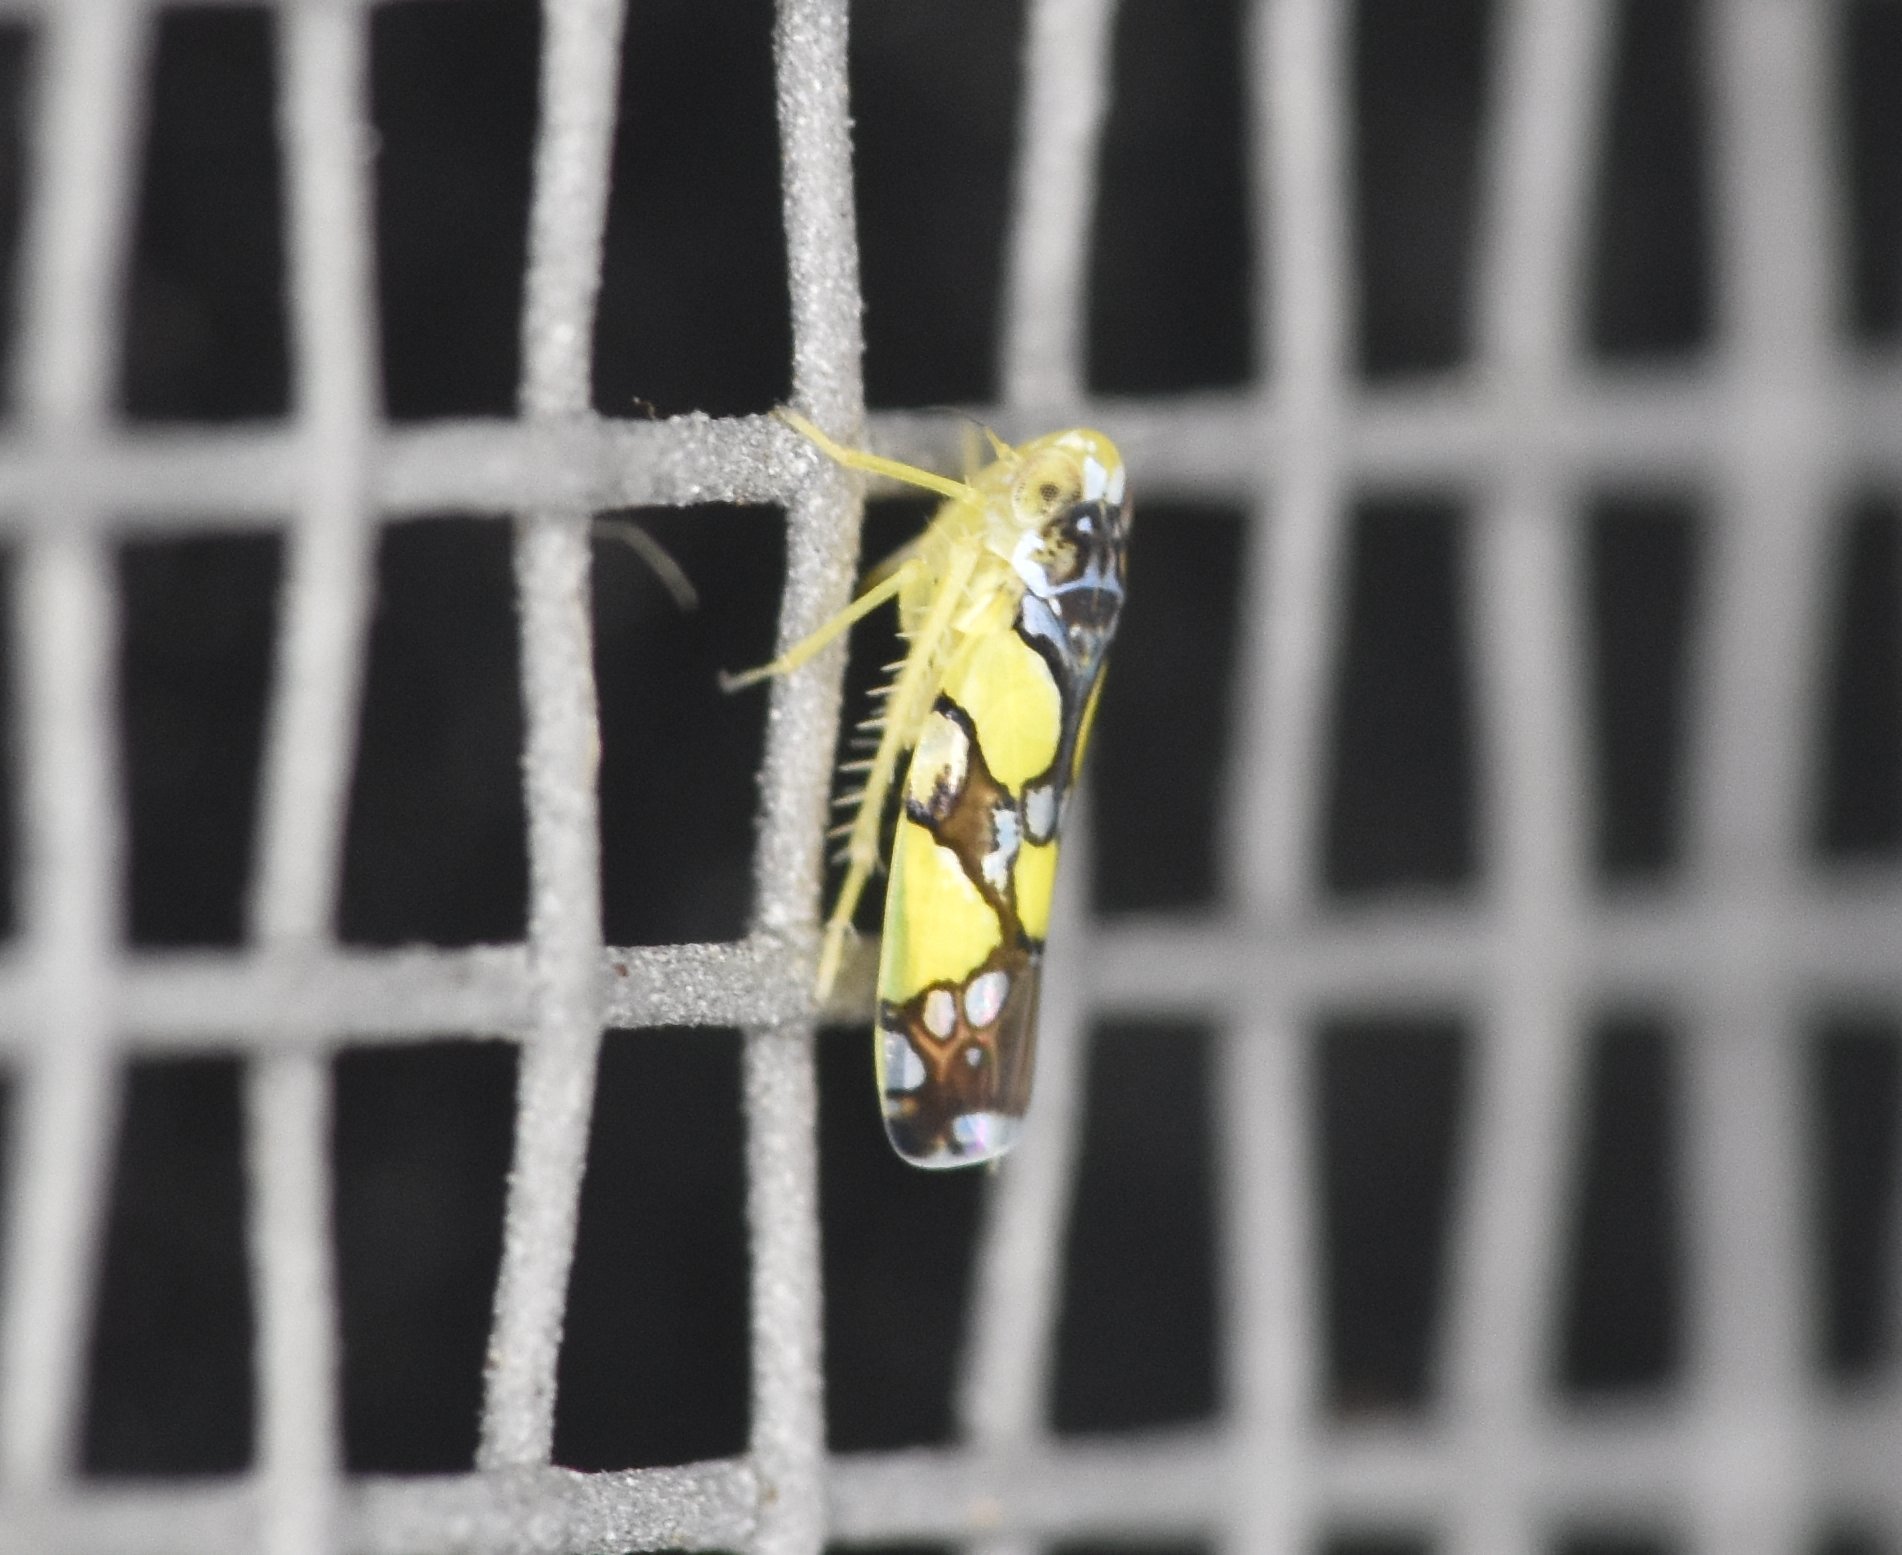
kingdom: Animalia
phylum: Arthropoda
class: Insecta
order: Hemiptera
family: Cicadellidae
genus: Protalebrella
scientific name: Protalebrella brasiliensis
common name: Brasilian leafhopper
